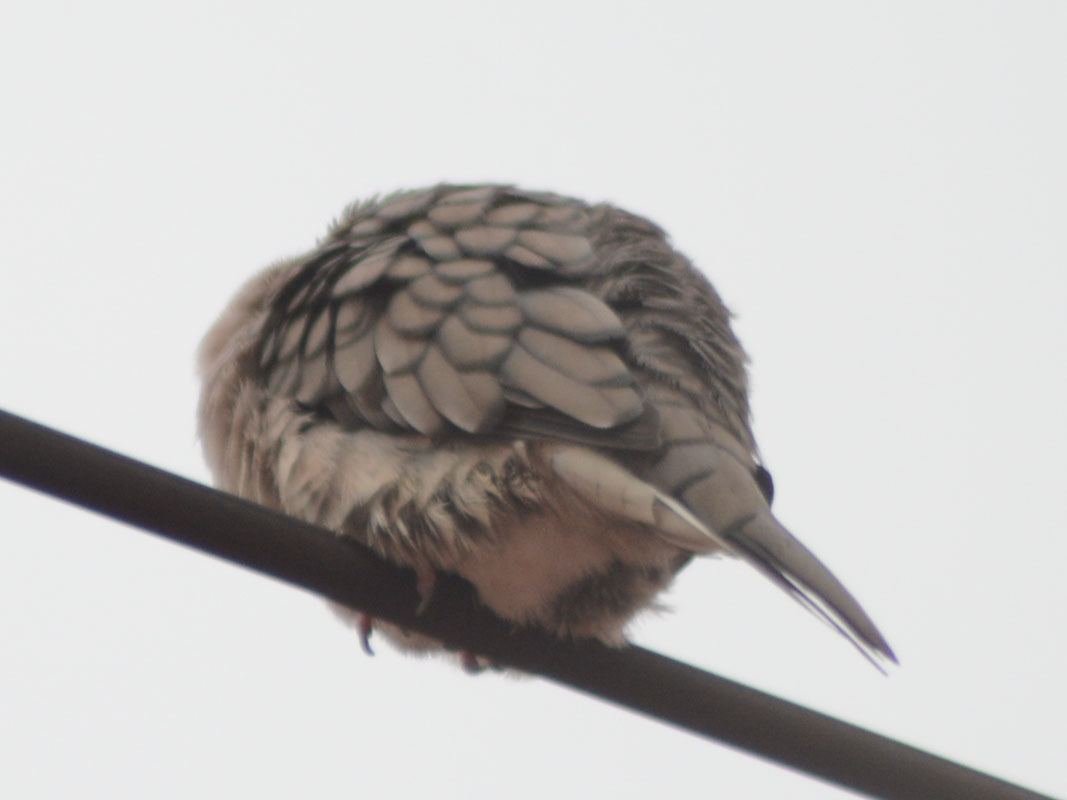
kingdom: Animalia
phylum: Chordata
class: Aves
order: Columbiformes
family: Columbidae
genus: Columbina
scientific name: Columbina inca
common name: Inca dove
